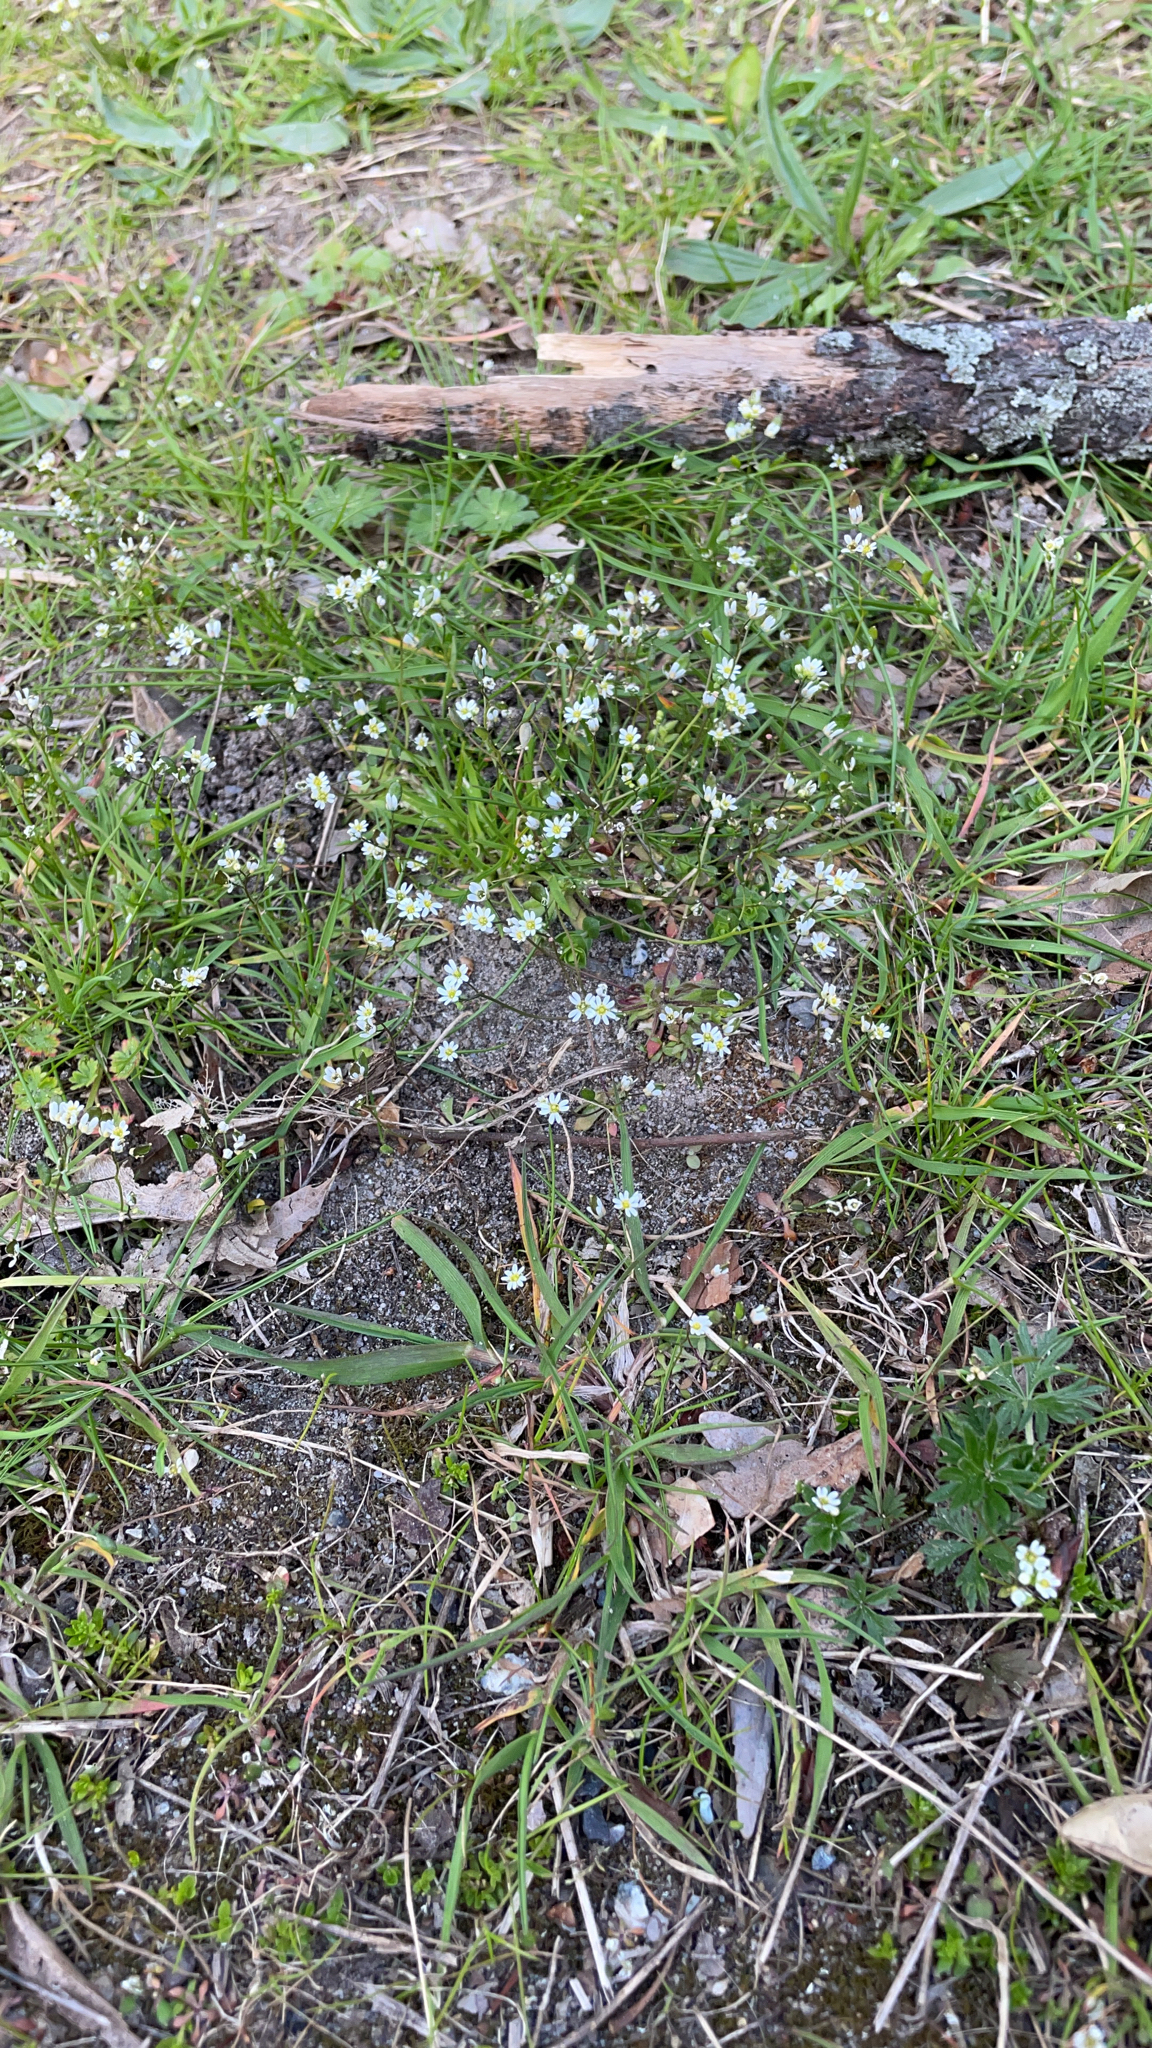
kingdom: Plantae
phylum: Tracheophyta
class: Magnoliopsida
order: Brassicales
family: Brassicaceae
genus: Draba
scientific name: Draba verna
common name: Spring draba
